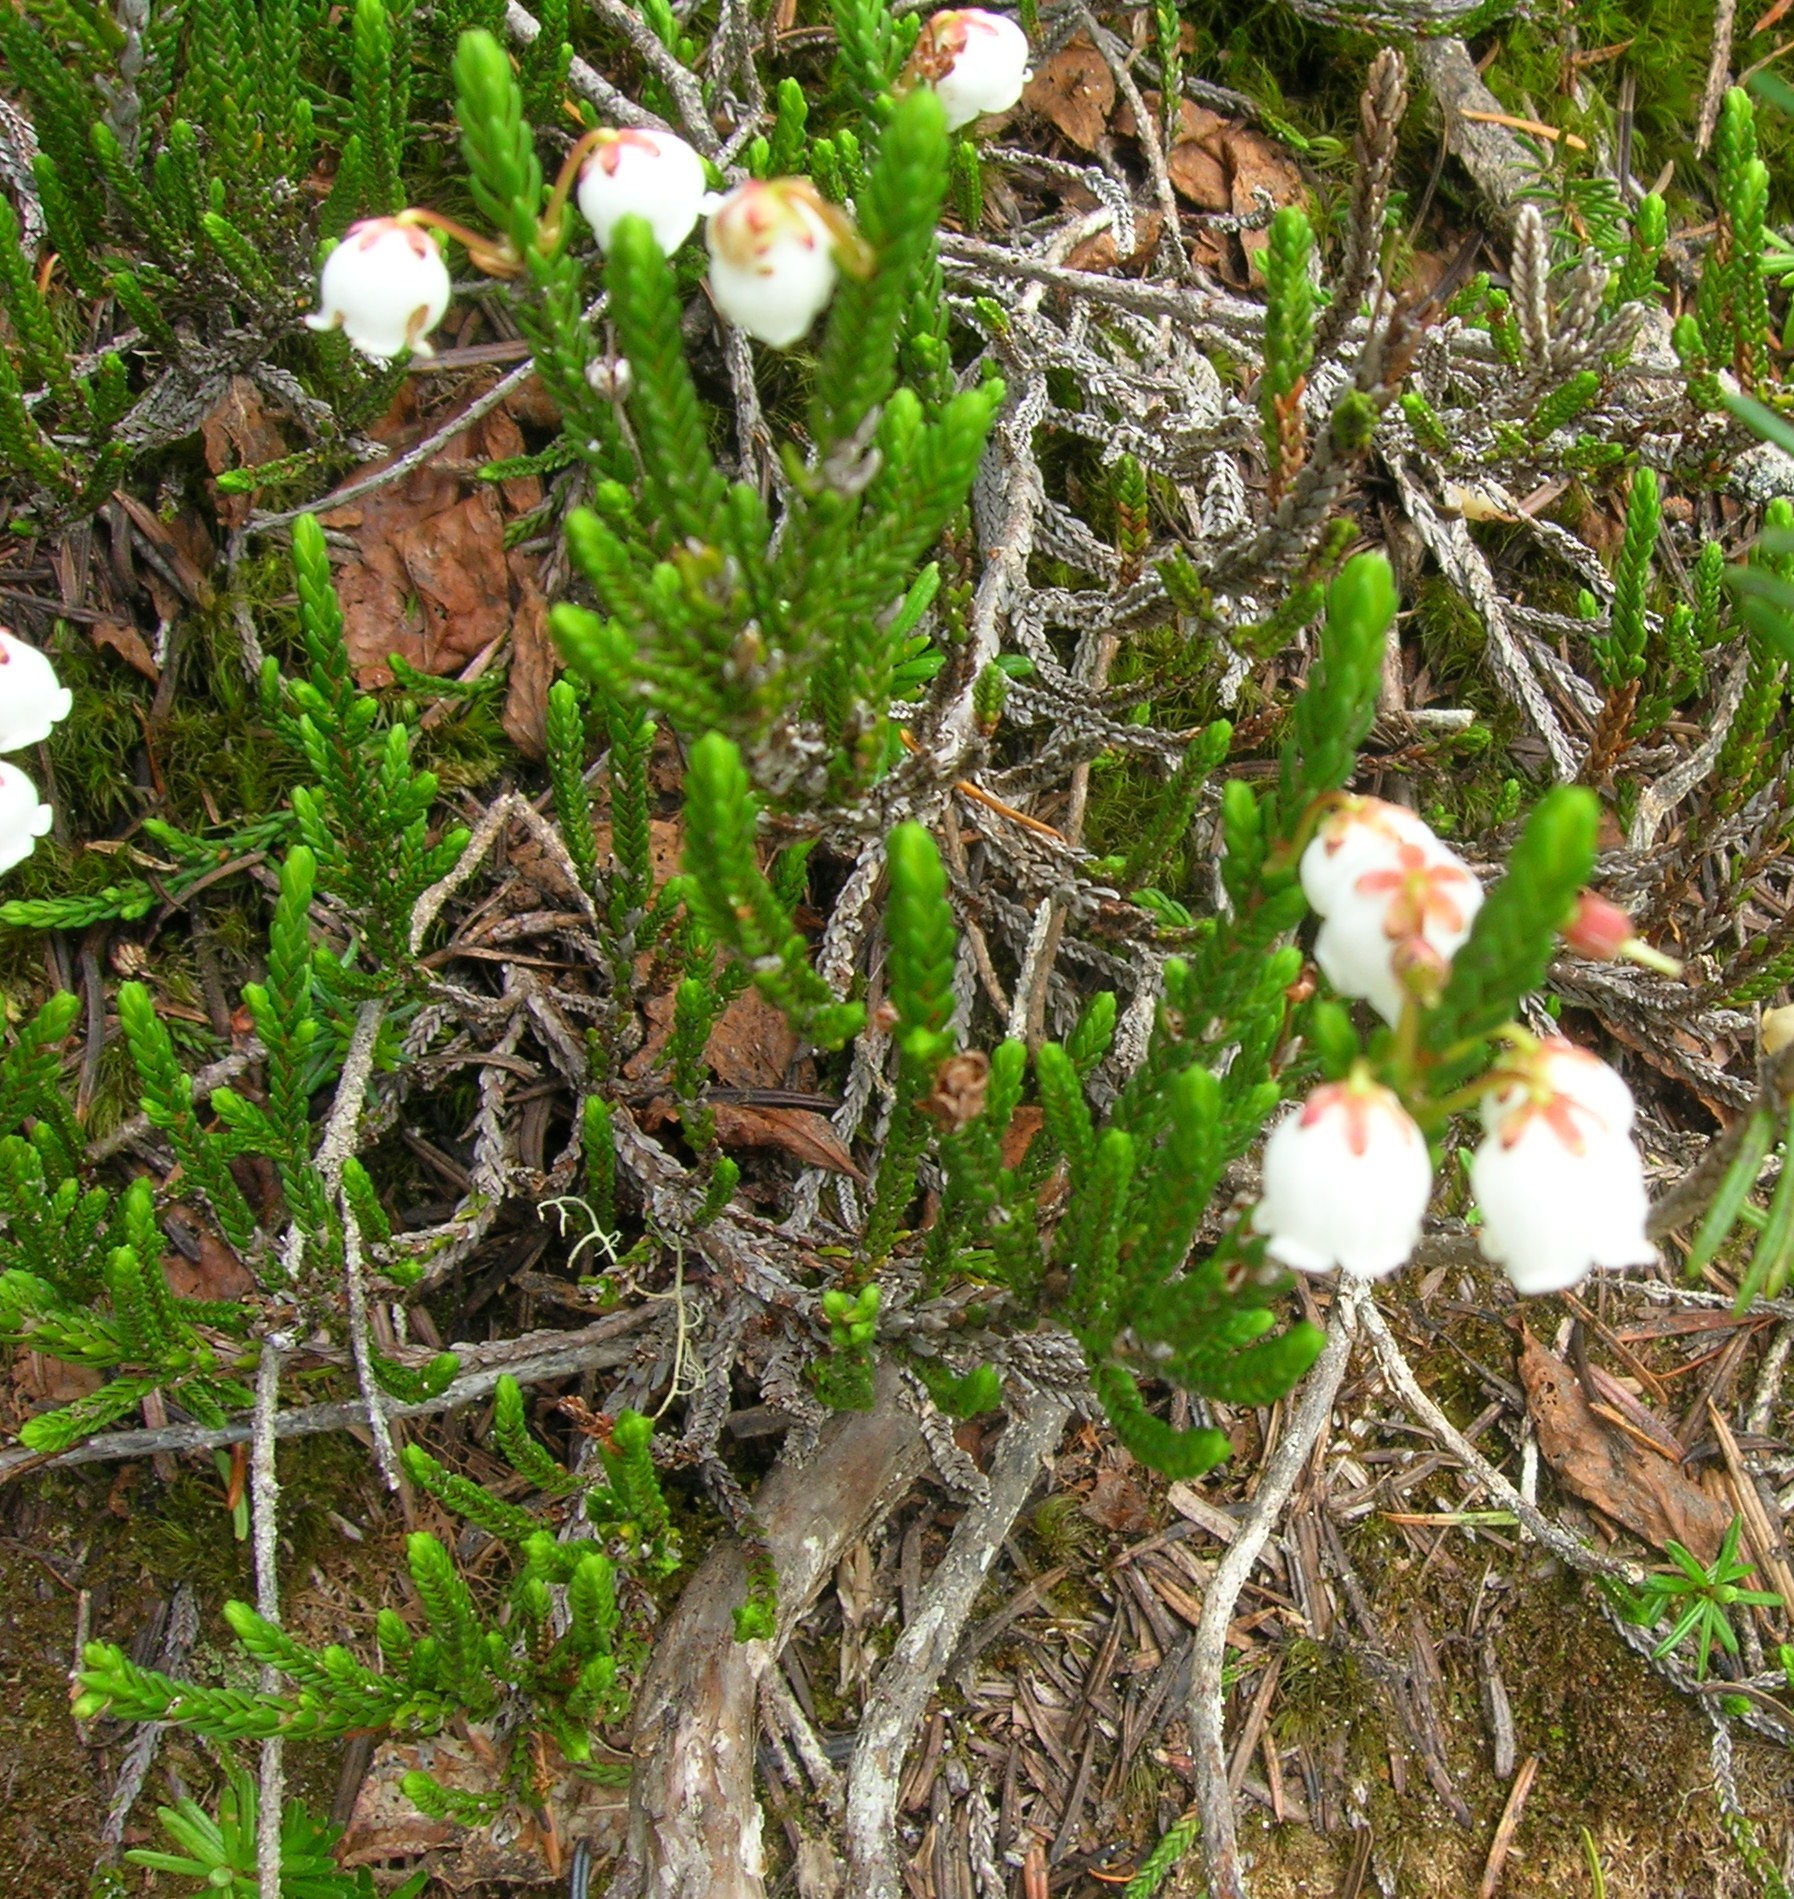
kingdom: Plantae
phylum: Tracheophyta
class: Magnoliopsida
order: Ericales
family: Ericaceae
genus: Cassiope
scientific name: Cassiope mertensiana
